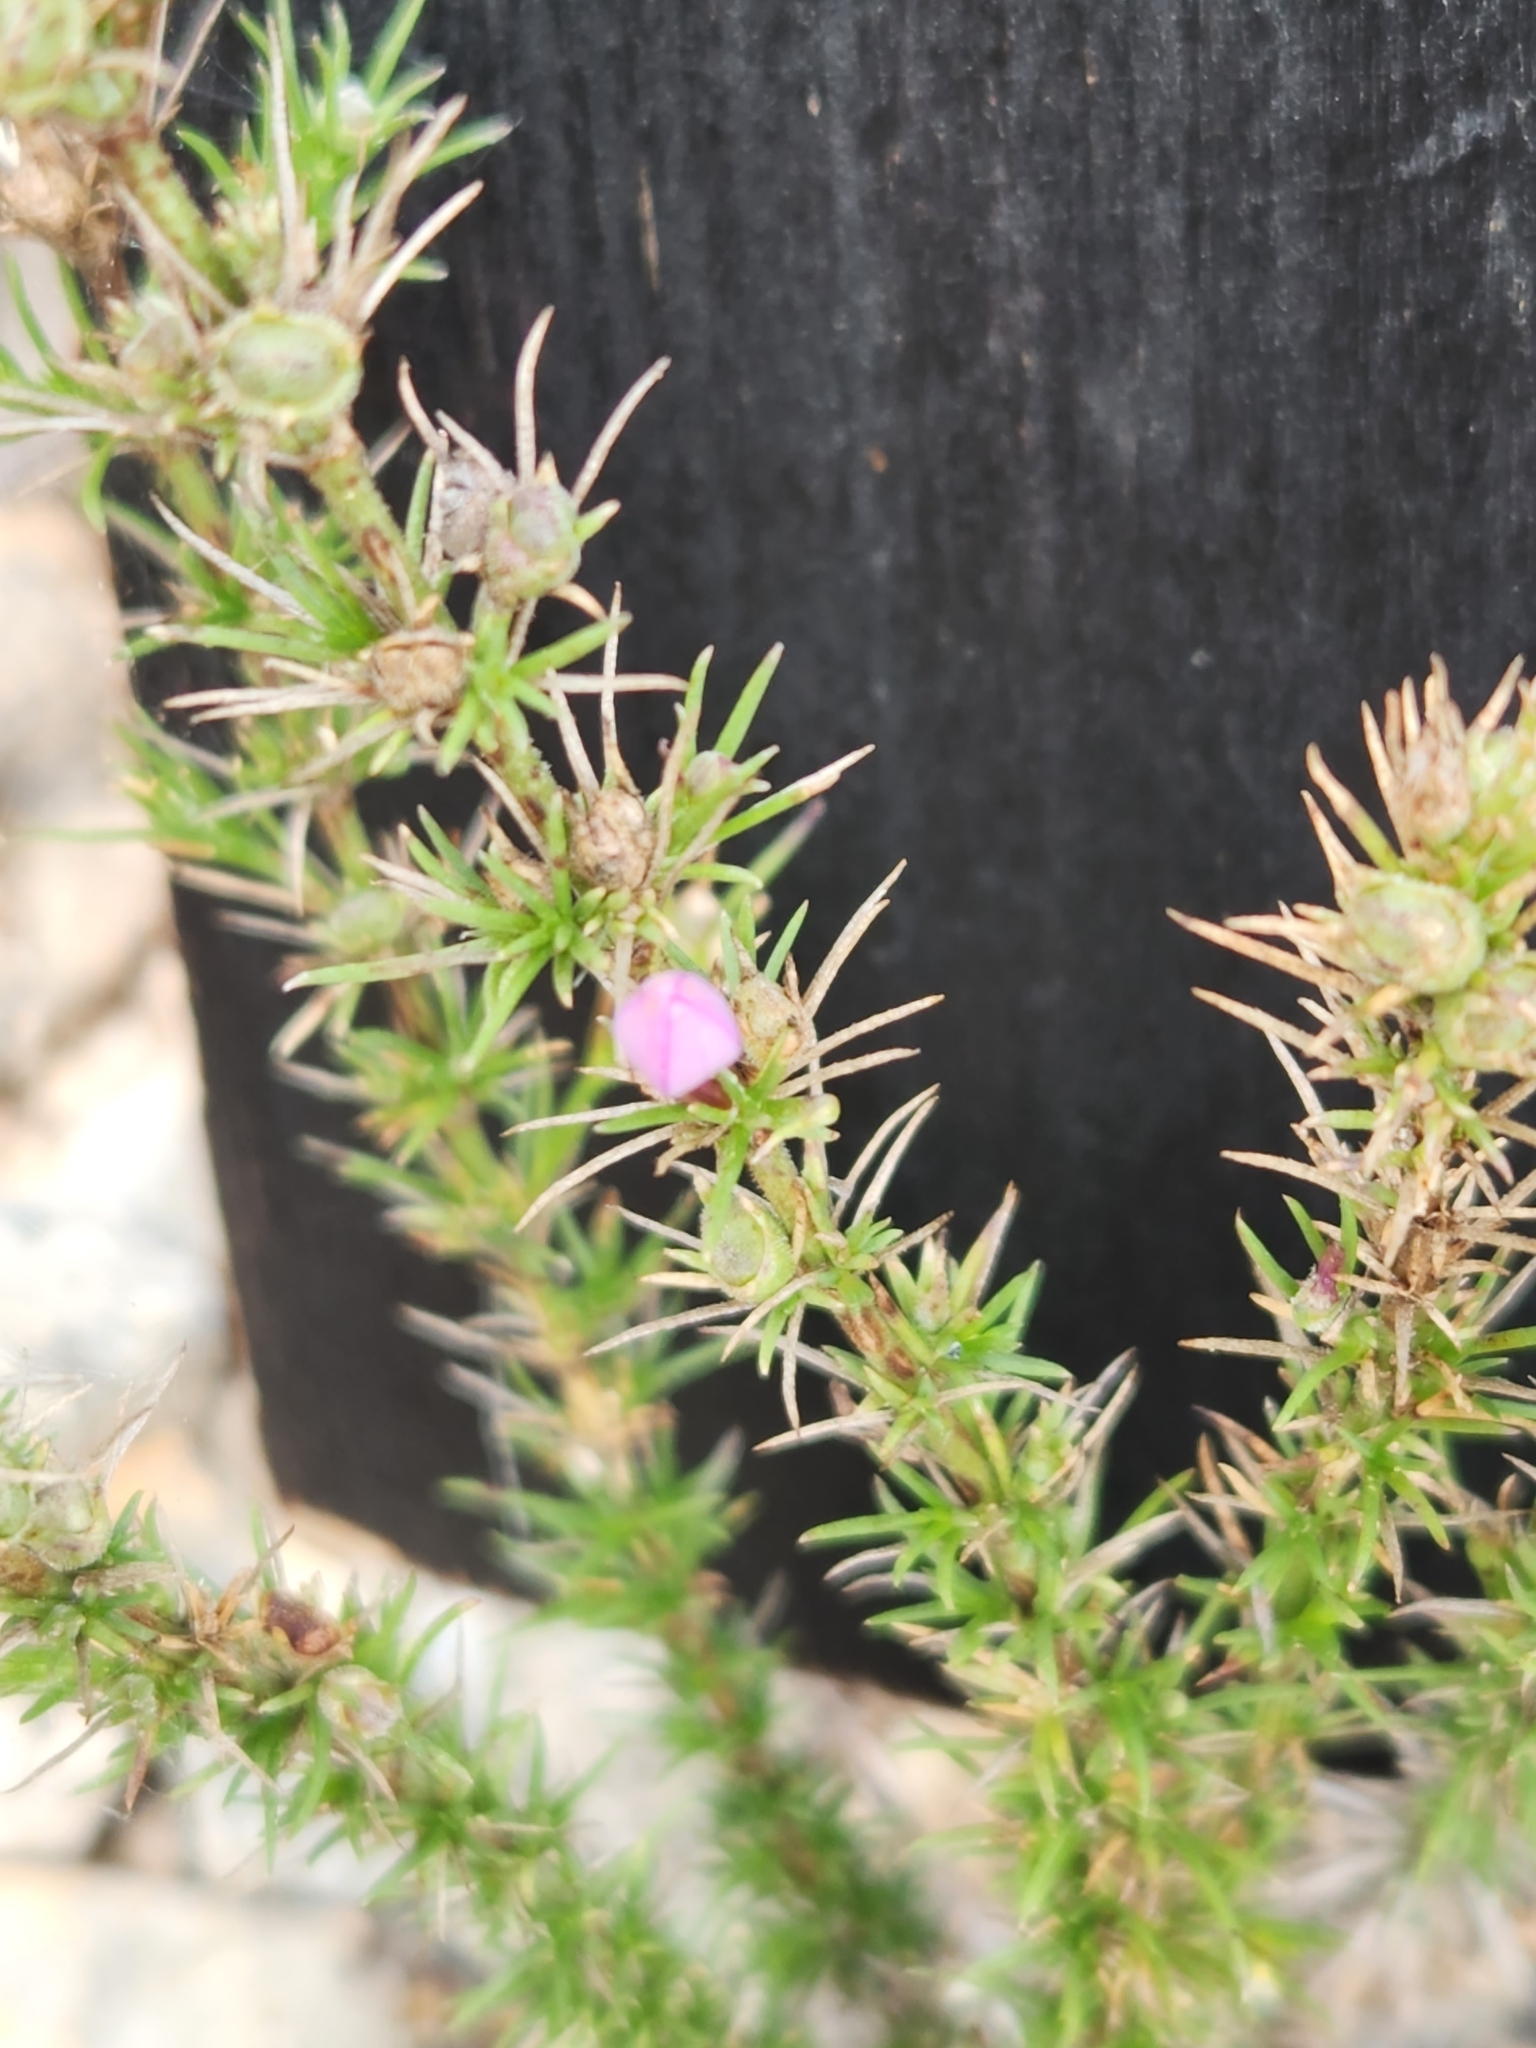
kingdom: Plantae
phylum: Tracheophyta
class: Magnoliopsida
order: Gentianales
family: Rubiaceae
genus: Houstonia
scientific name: Houstonia acerosa
